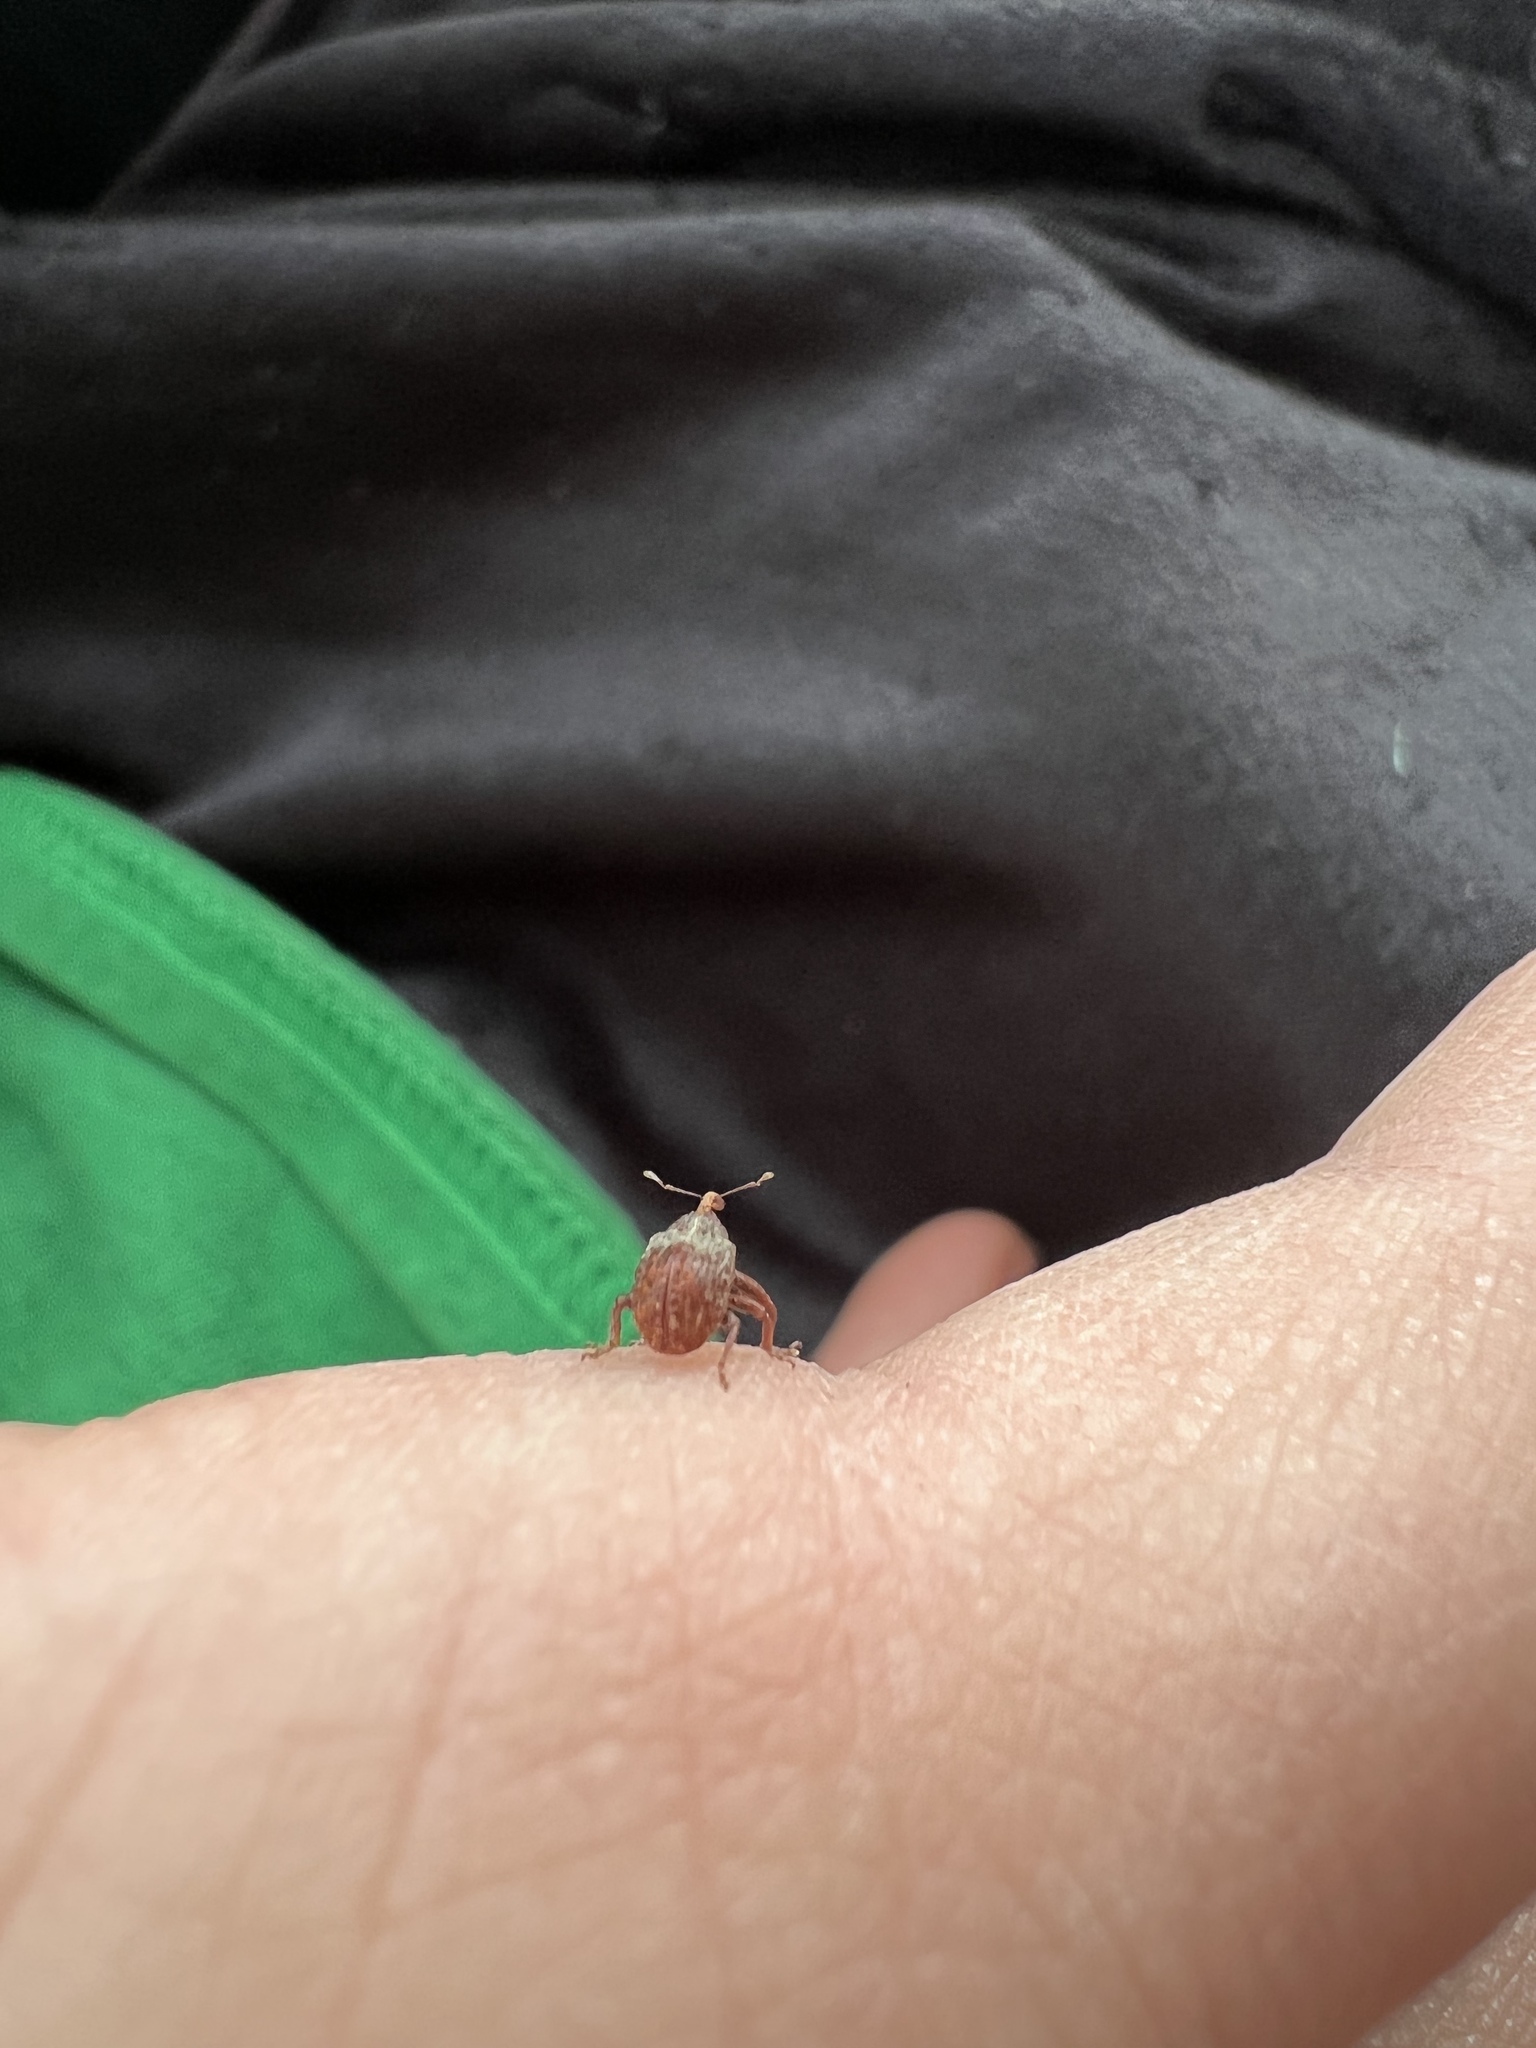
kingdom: Animalia
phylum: Arthropoda
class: Insecta
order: Coleoptera
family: Curculionidae
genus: Anthonomus
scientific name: Anthonomus quadrigibbus
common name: Apple curculio
